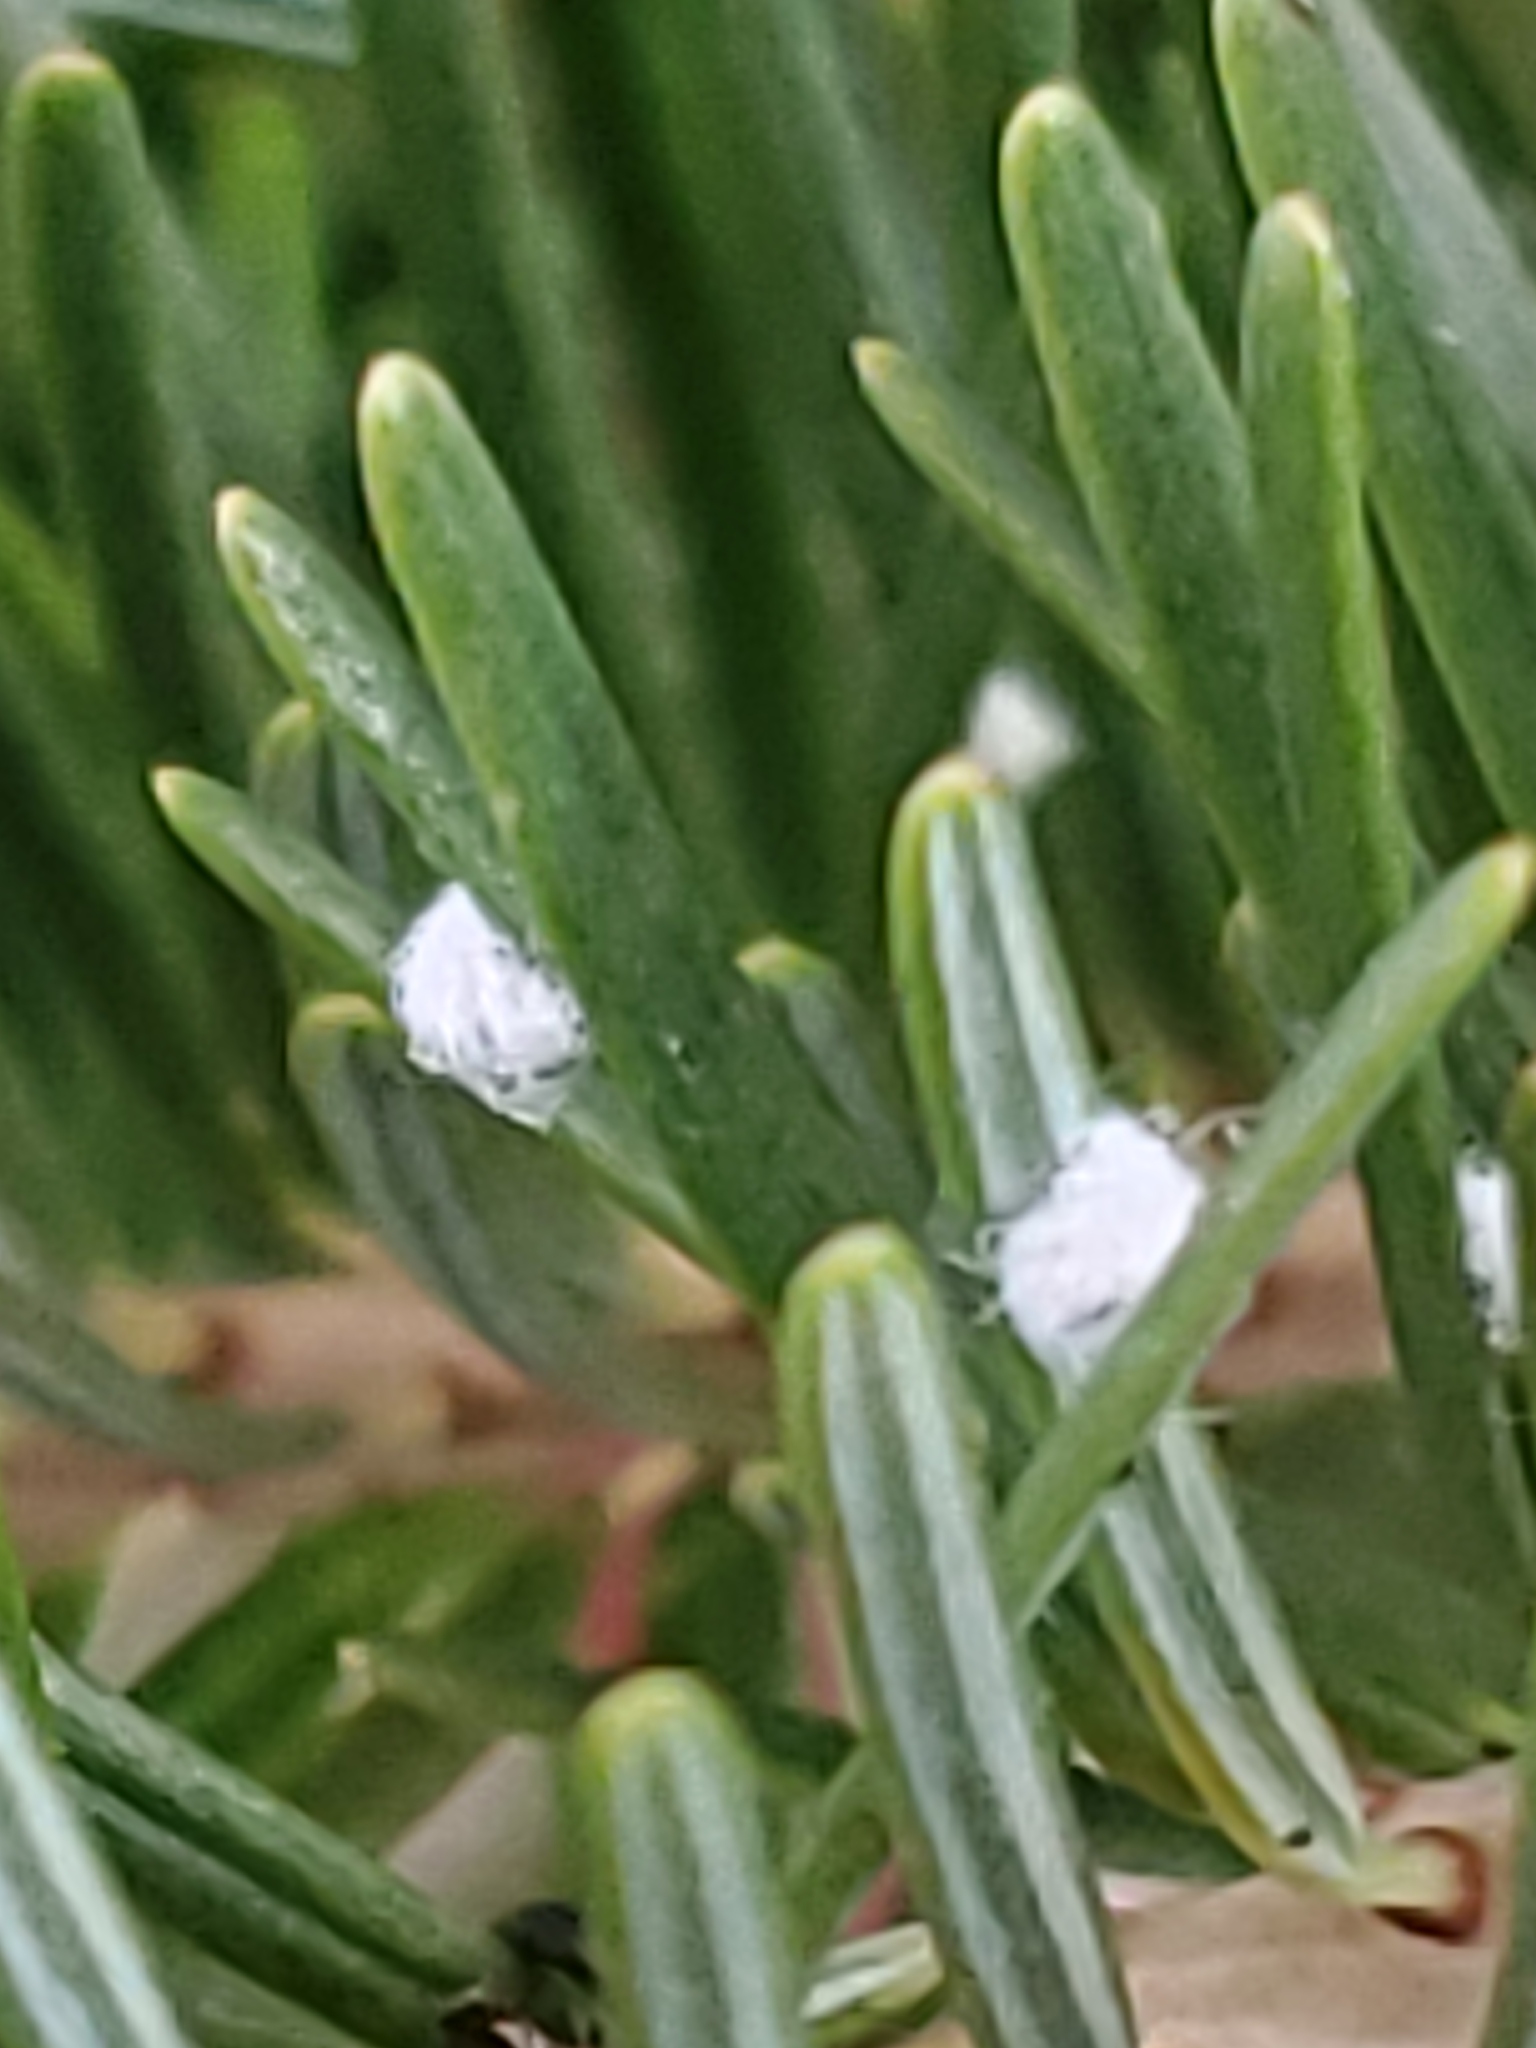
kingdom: Animalia
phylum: Arthropoda
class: Insecta
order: Hemiptera
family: Adelgidae
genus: Adelges
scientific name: Adelges cooleyi
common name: Cooley spruce gall adelgid
